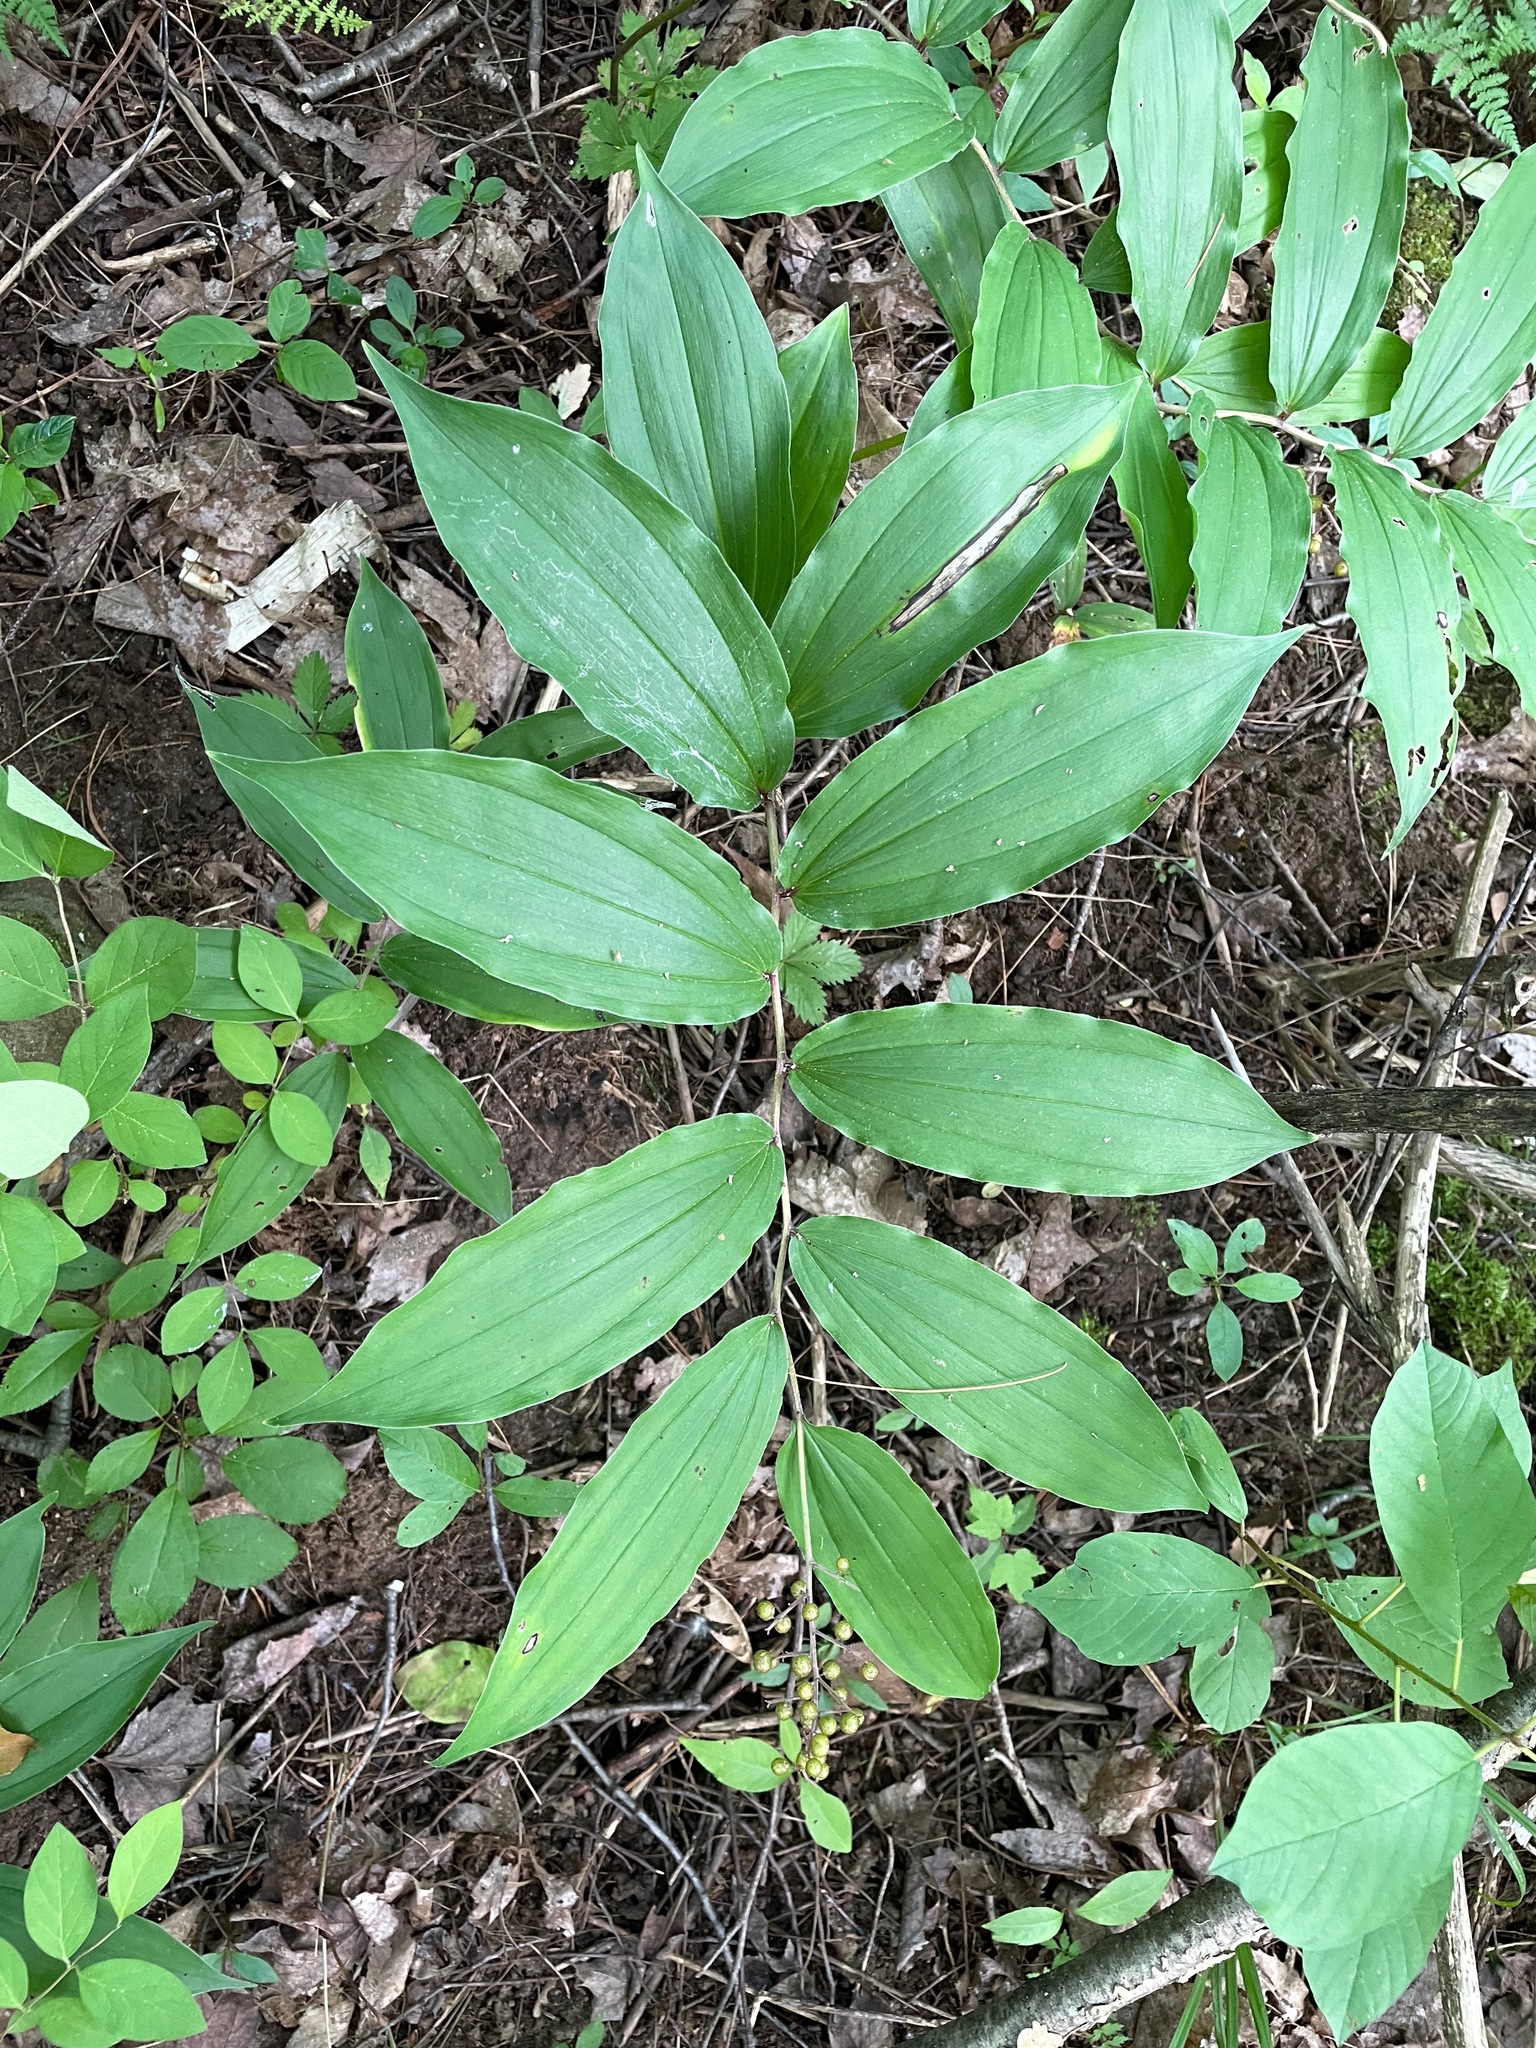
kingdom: Plantae
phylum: Tracheophyta
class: Liliopsida
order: Asparagales
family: Asparagaceae
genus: Maianthemum
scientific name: Maianthemum racemosum
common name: False spikenard
